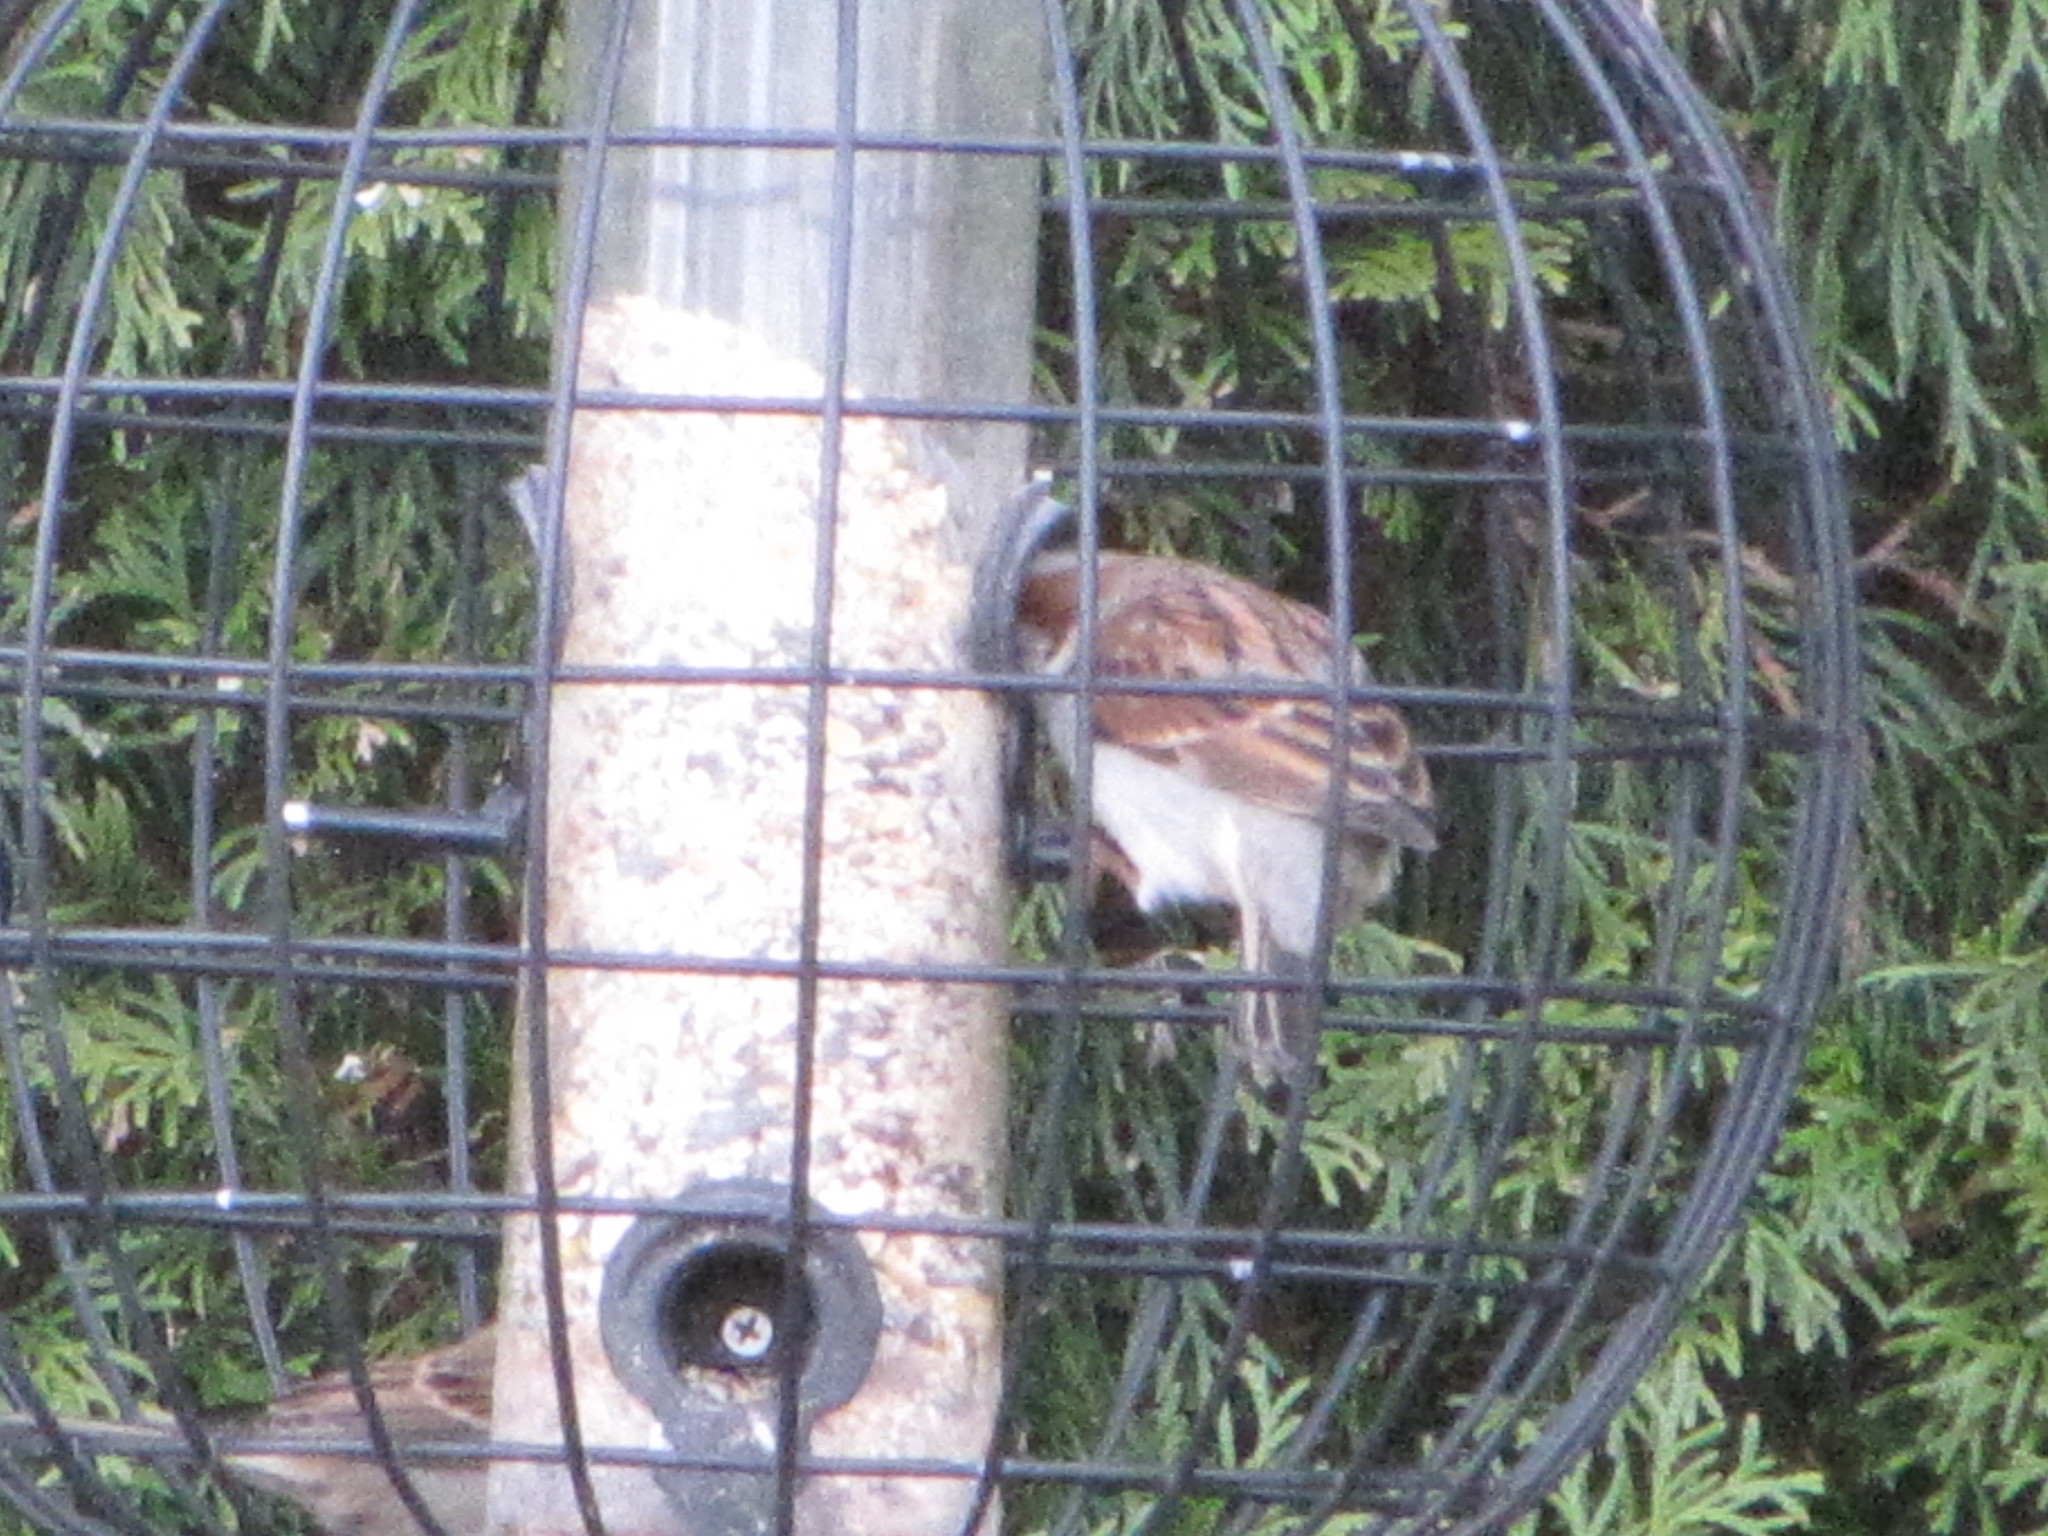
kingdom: Animalia
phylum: Chordata
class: Aves
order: Passeriformes
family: Passeridae
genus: Passer
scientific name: Passer domesticus
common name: House sparrow
